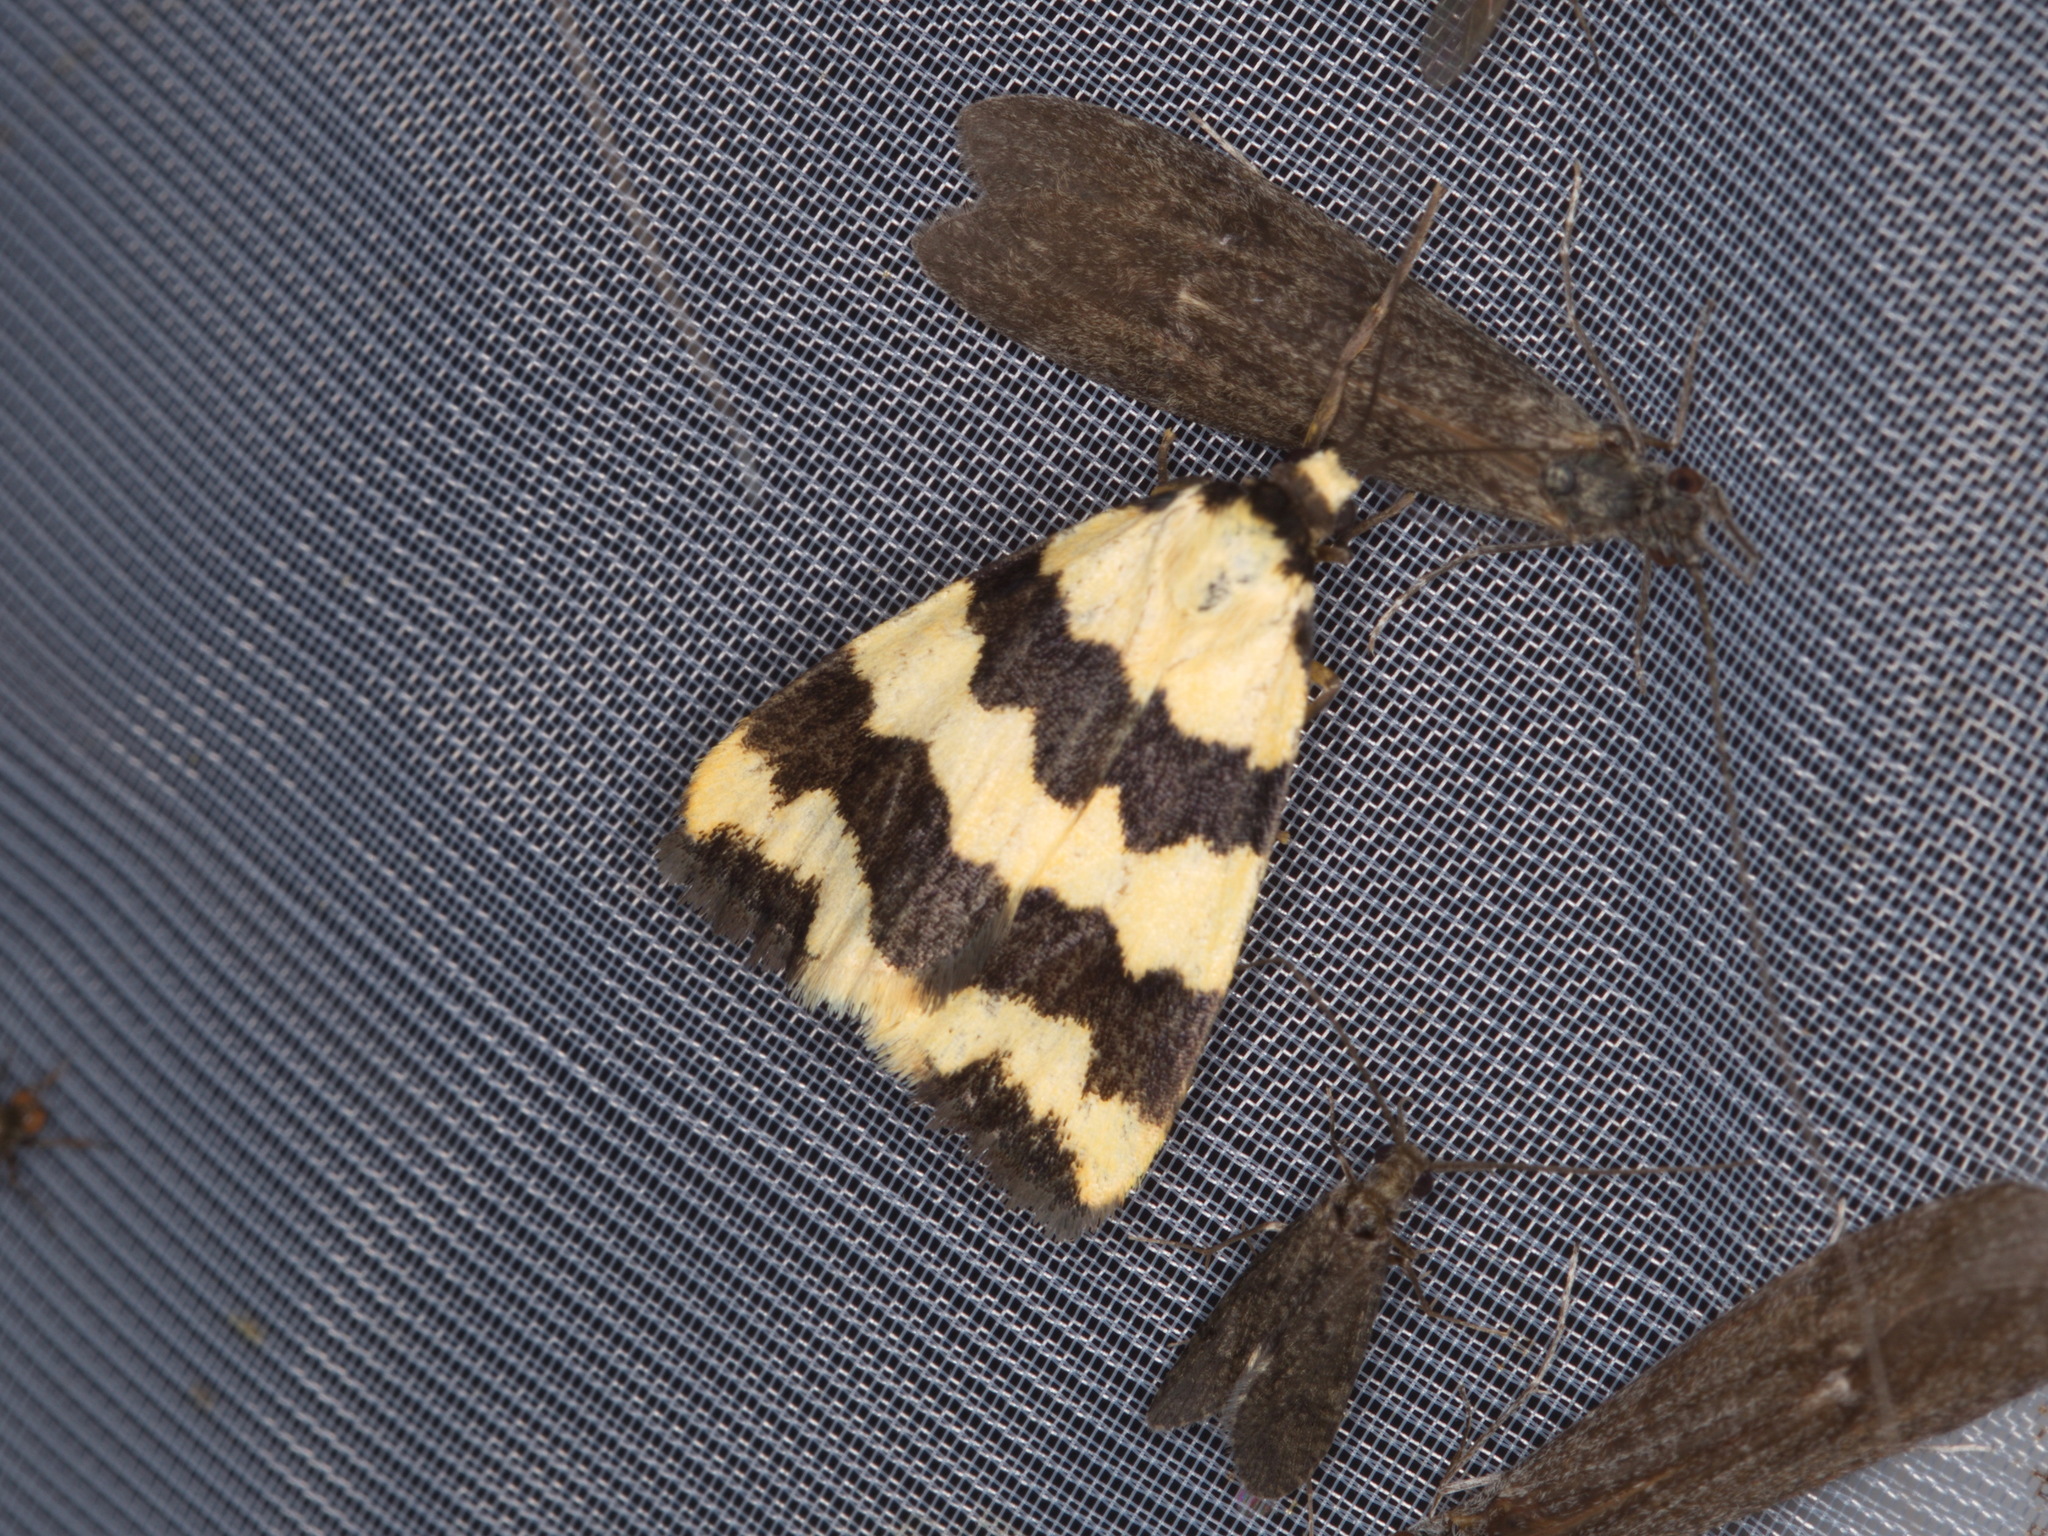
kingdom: Animalia
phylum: Arthropoda
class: Insecta
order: Lepidoptera
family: Erebidae
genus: Termessa
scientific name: Termessa laeta
